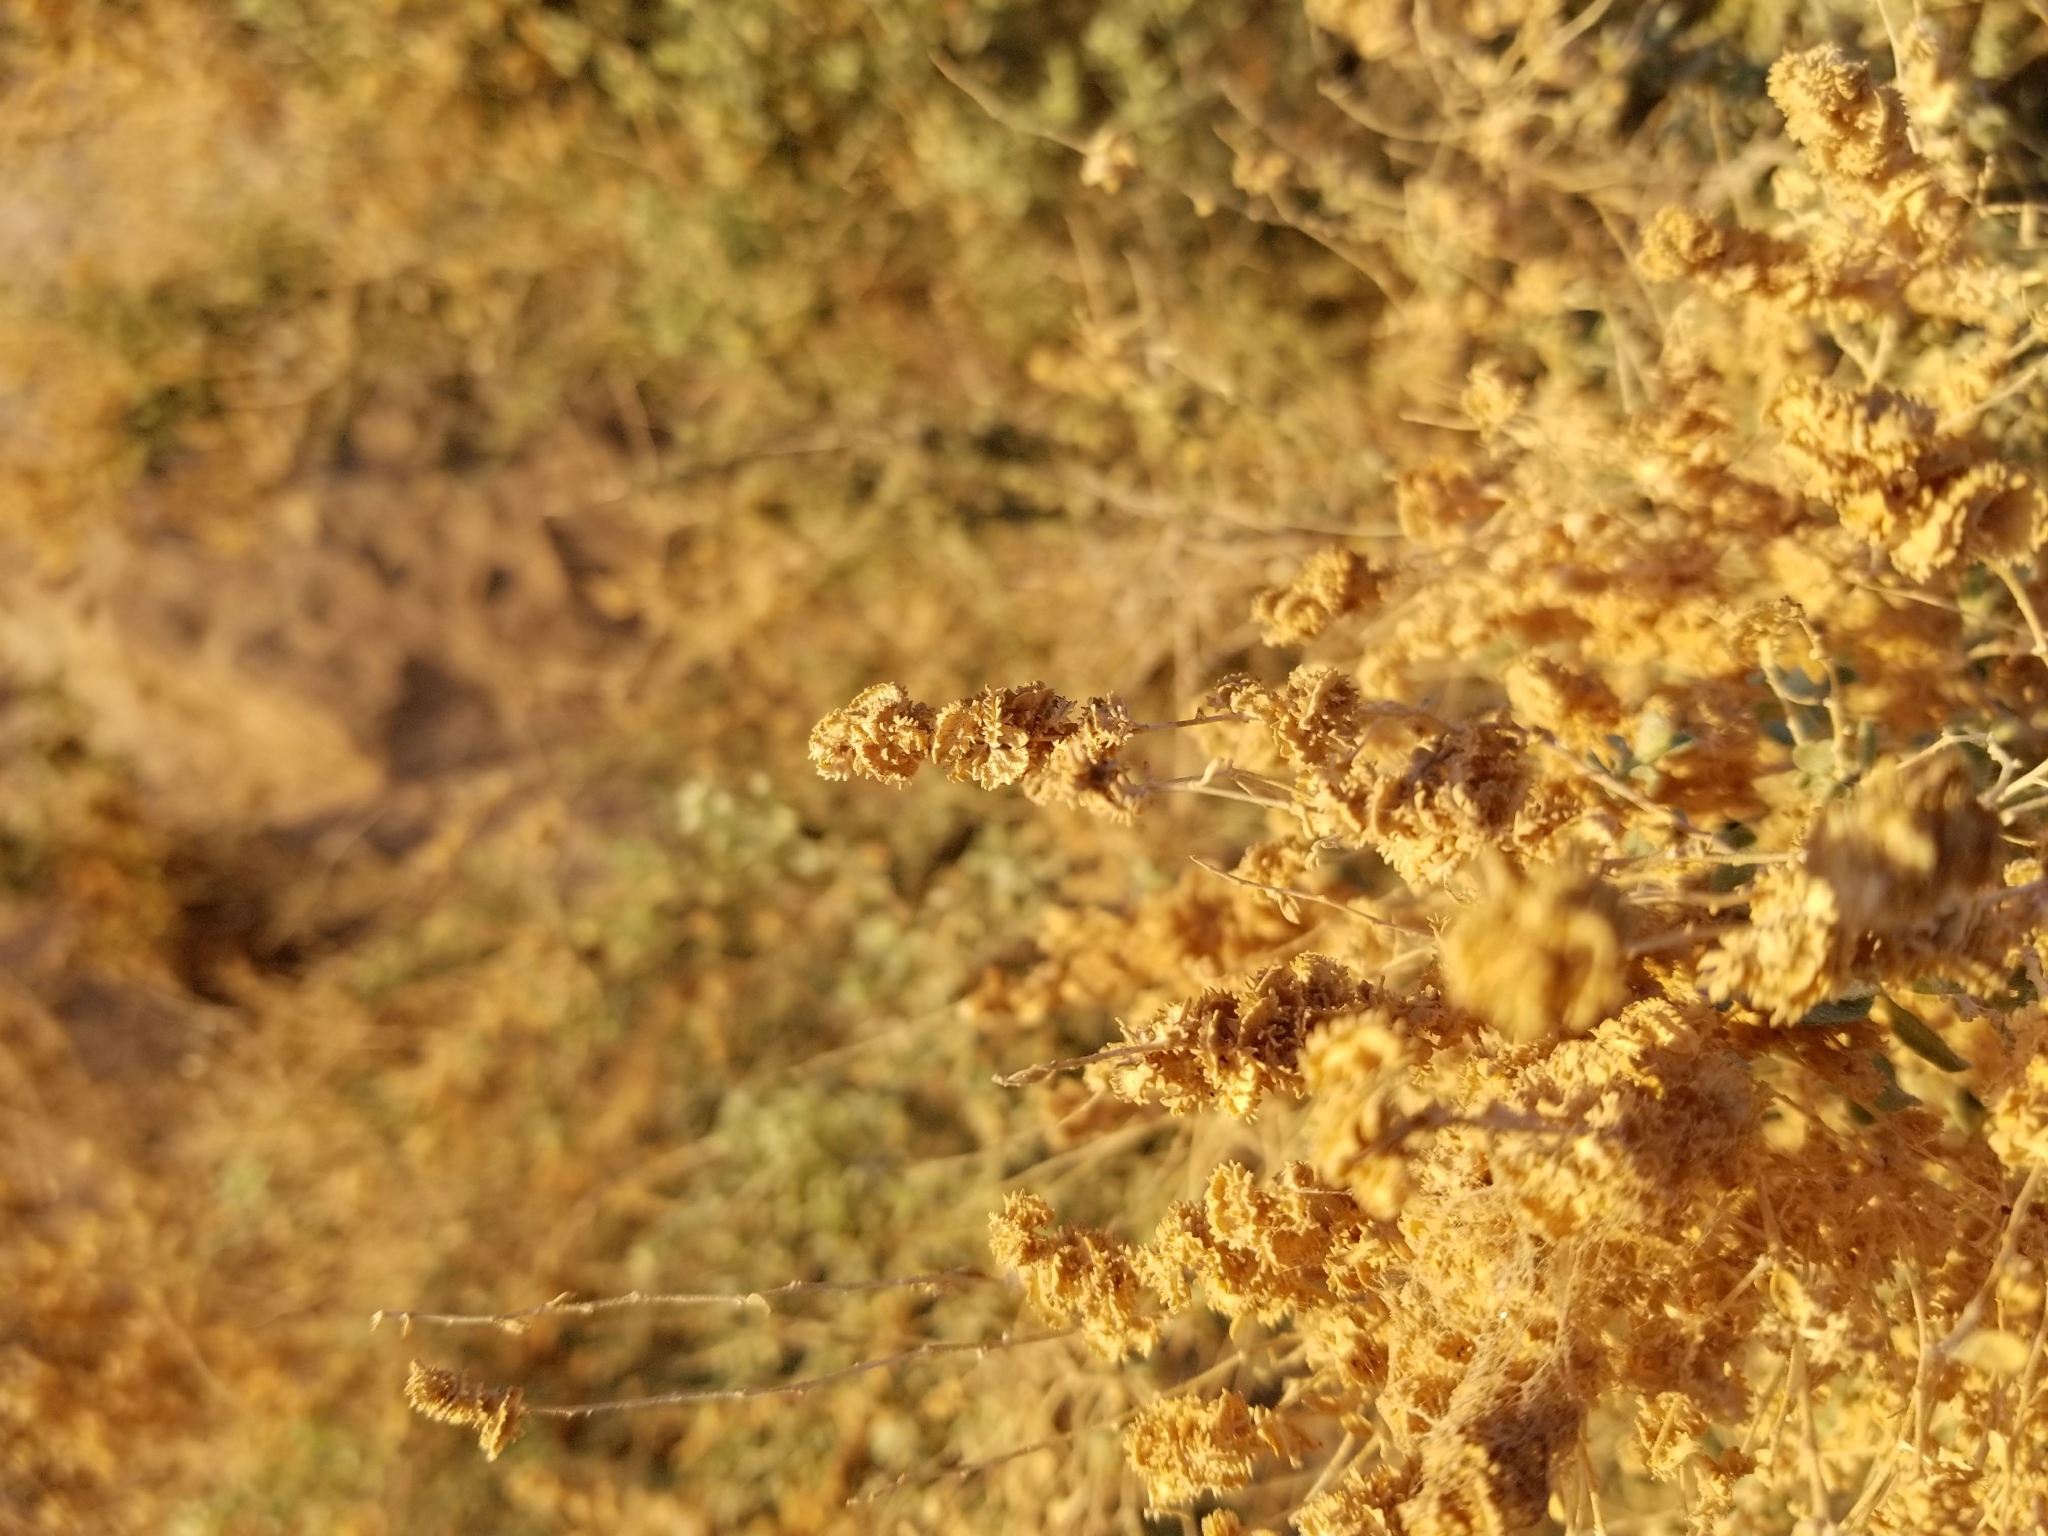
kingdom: Plantae
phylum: Tracheophyta
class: Magnoliopsida
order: Caryophyllales
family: Amaranthaceae
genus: Atriplex
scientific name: Atriplex canescens
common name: Four-wing saltbush
